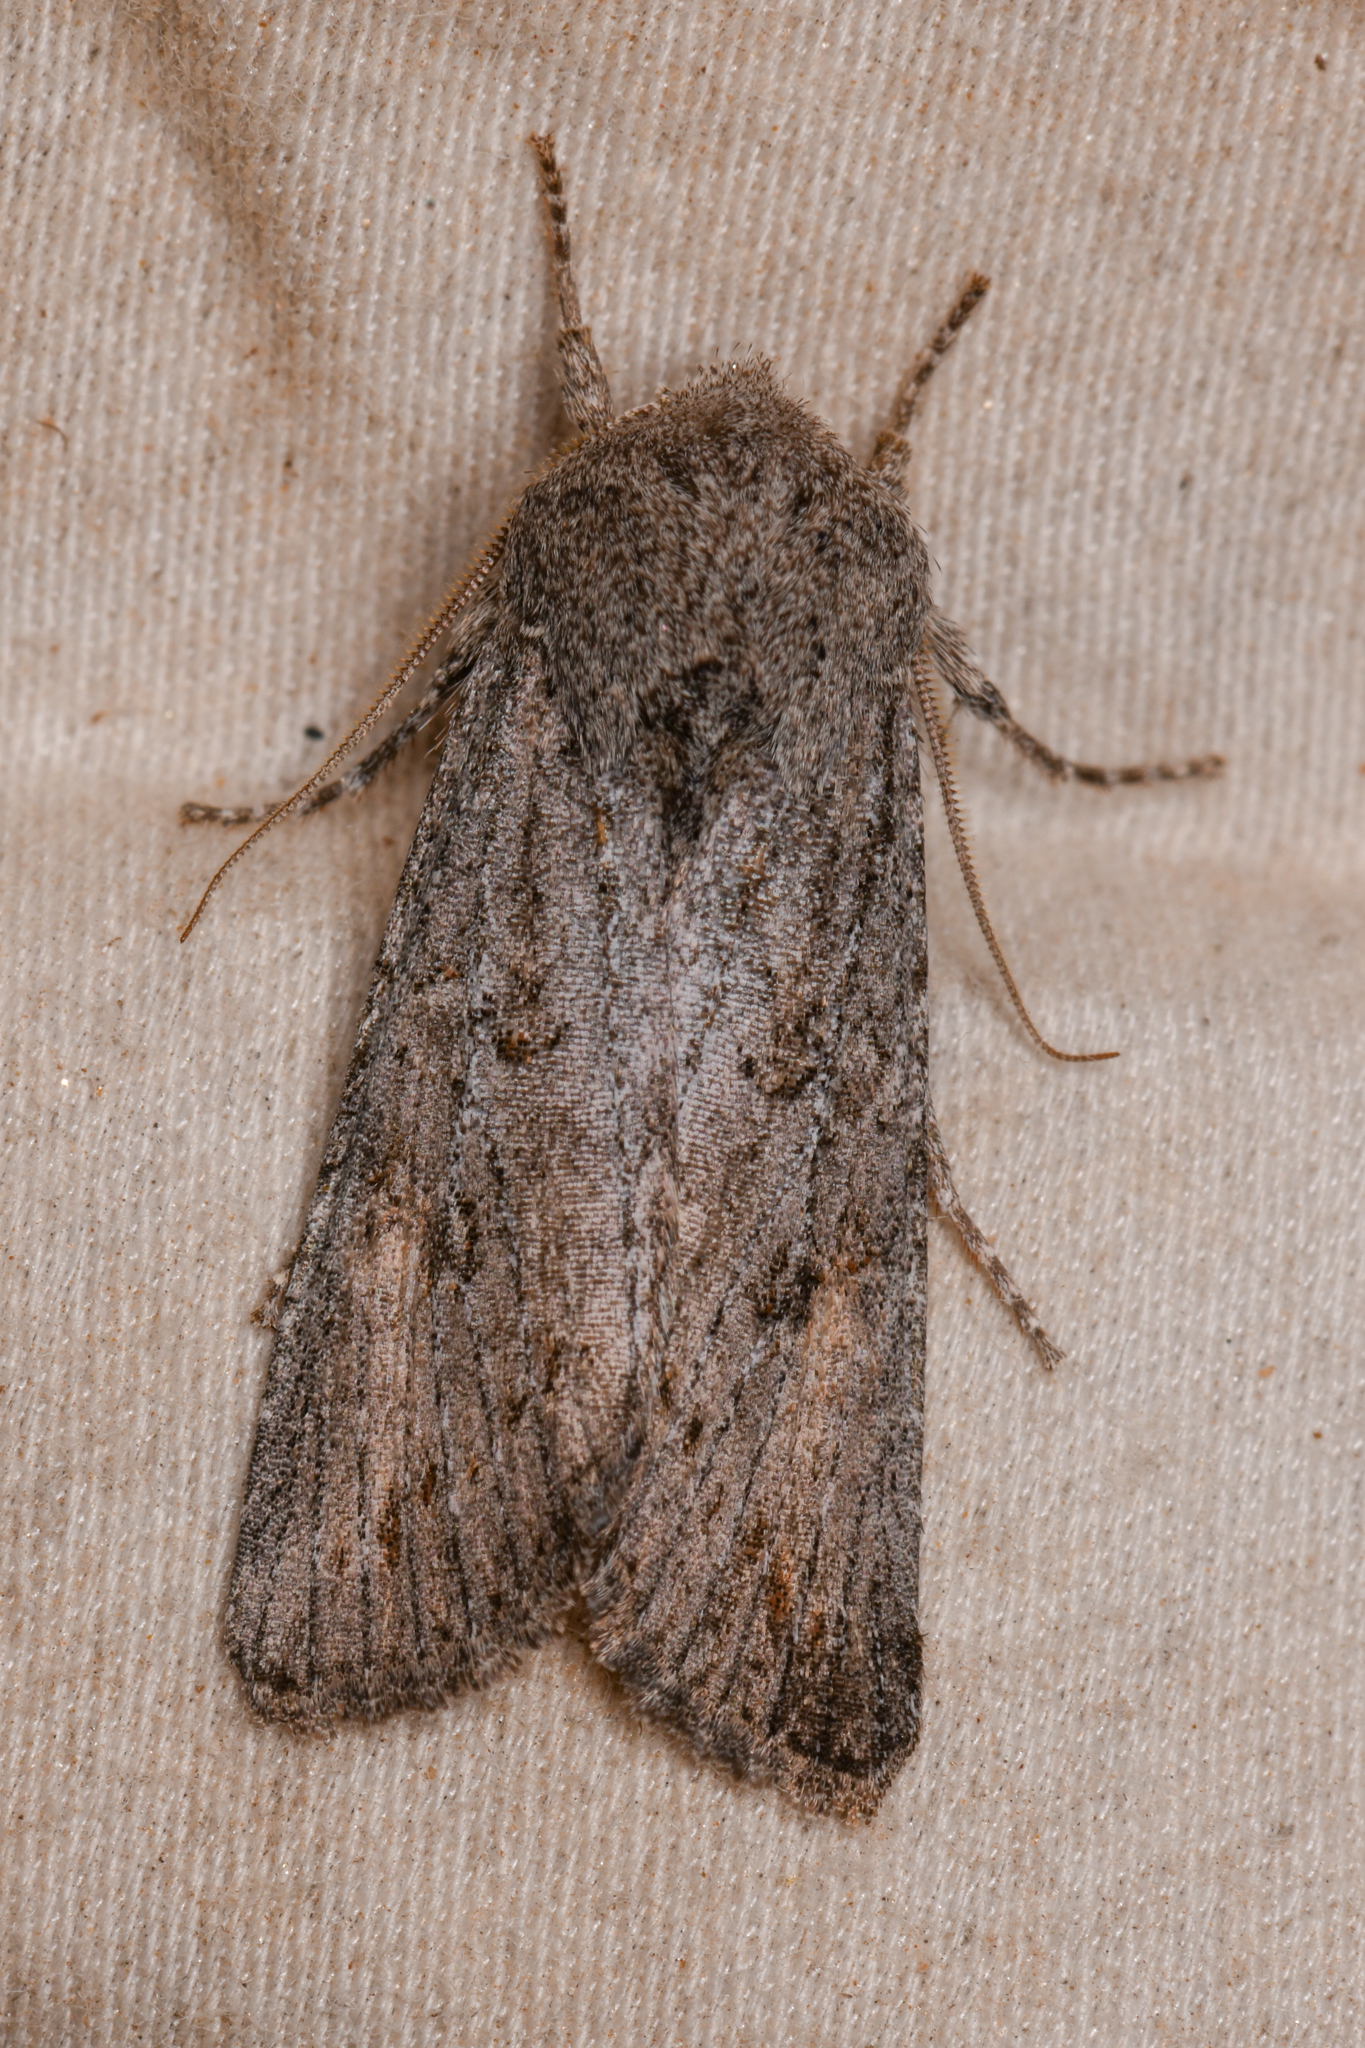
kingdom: Animalia
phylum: Arthropoda
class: Insecta
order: Lepidoptera
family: Noctuidae
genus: Egira
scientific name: Egira curialis
